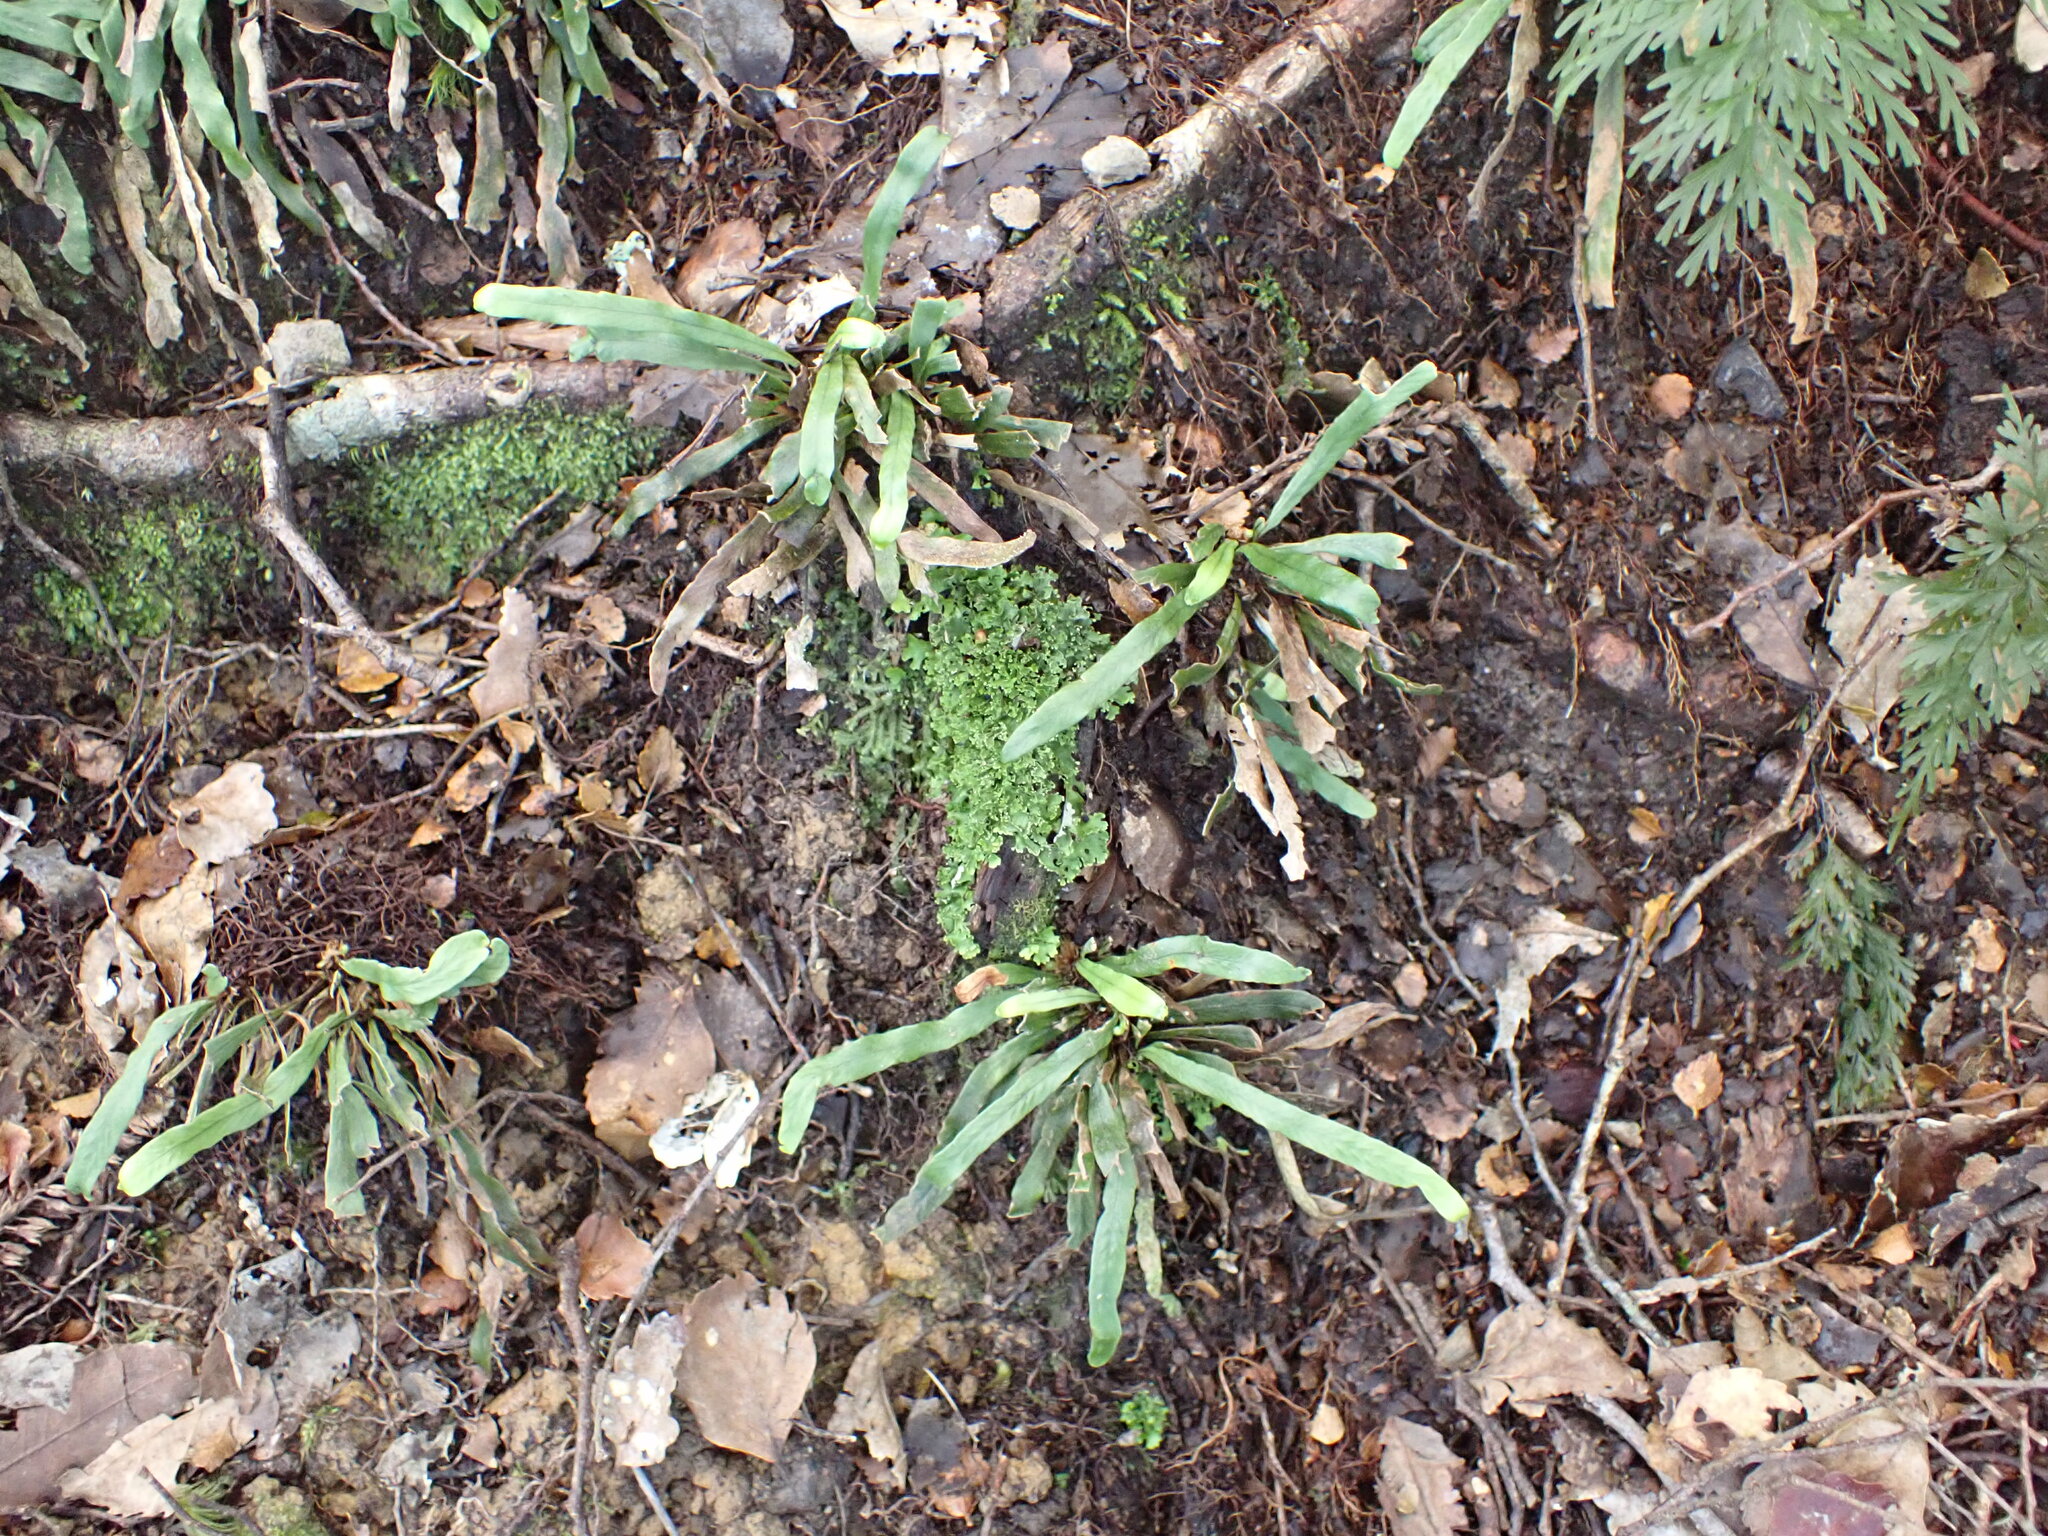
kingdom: Plantae
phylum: Tracheophyta
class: Polypodiopsida
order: Polypodiales
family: Polypodiaceae
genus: Notogrammitis
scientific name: Notogrammitis billardierei
